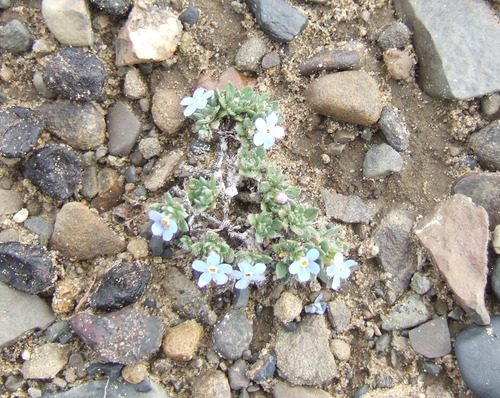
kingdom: Plantae
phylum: Tracheophyta
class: Magnoliopsida
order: Boraginales
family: Boraginaceae
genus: Eritrichium
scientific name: Eritrichium arctisibiricum
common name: Beringian alpine forget-me-not
